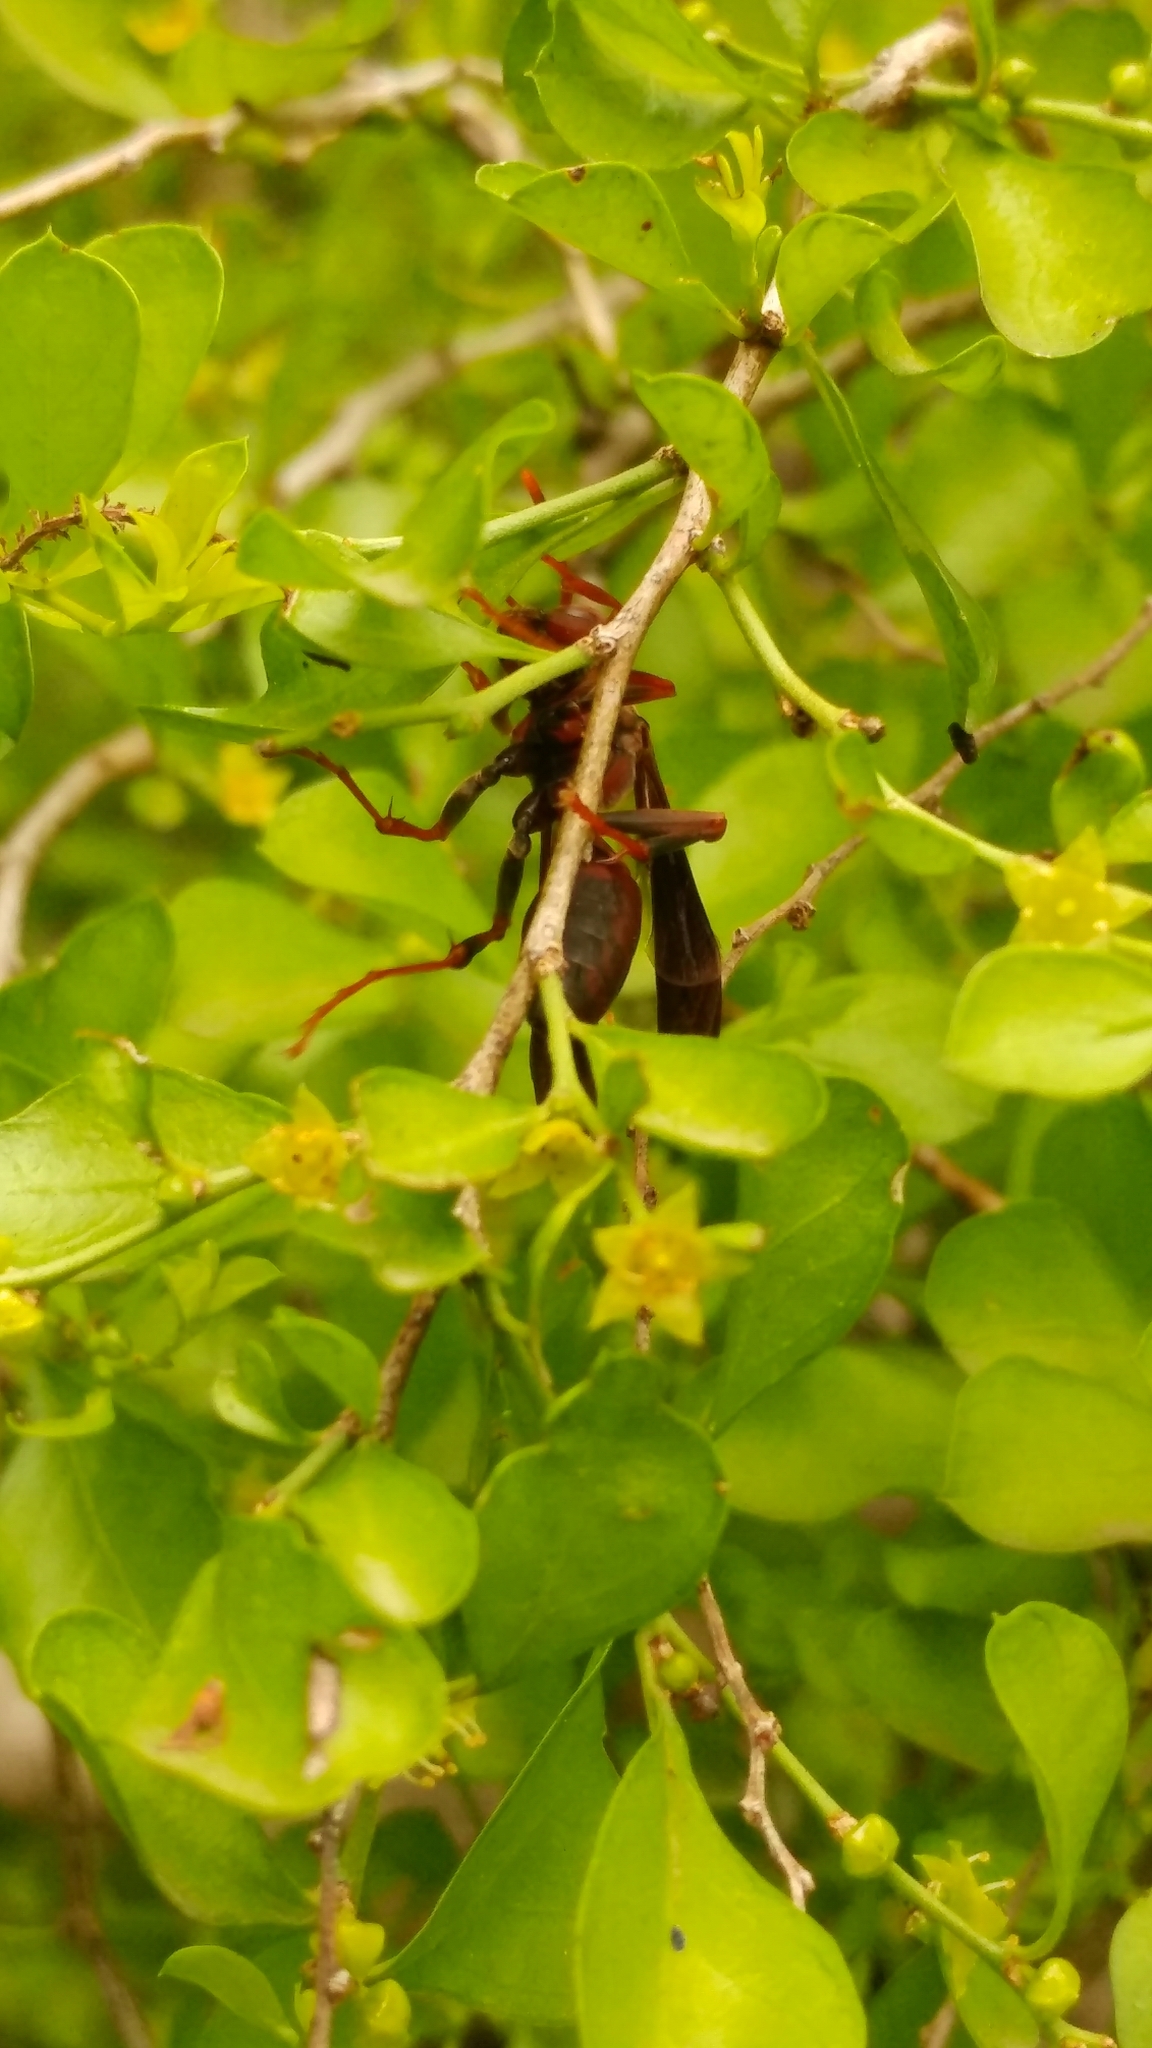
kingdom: Animalia
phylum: Arthropoda
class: Insecta
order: Hymenoptera
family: Eumenidae
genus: Polistes
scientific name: Polistes canadensis
